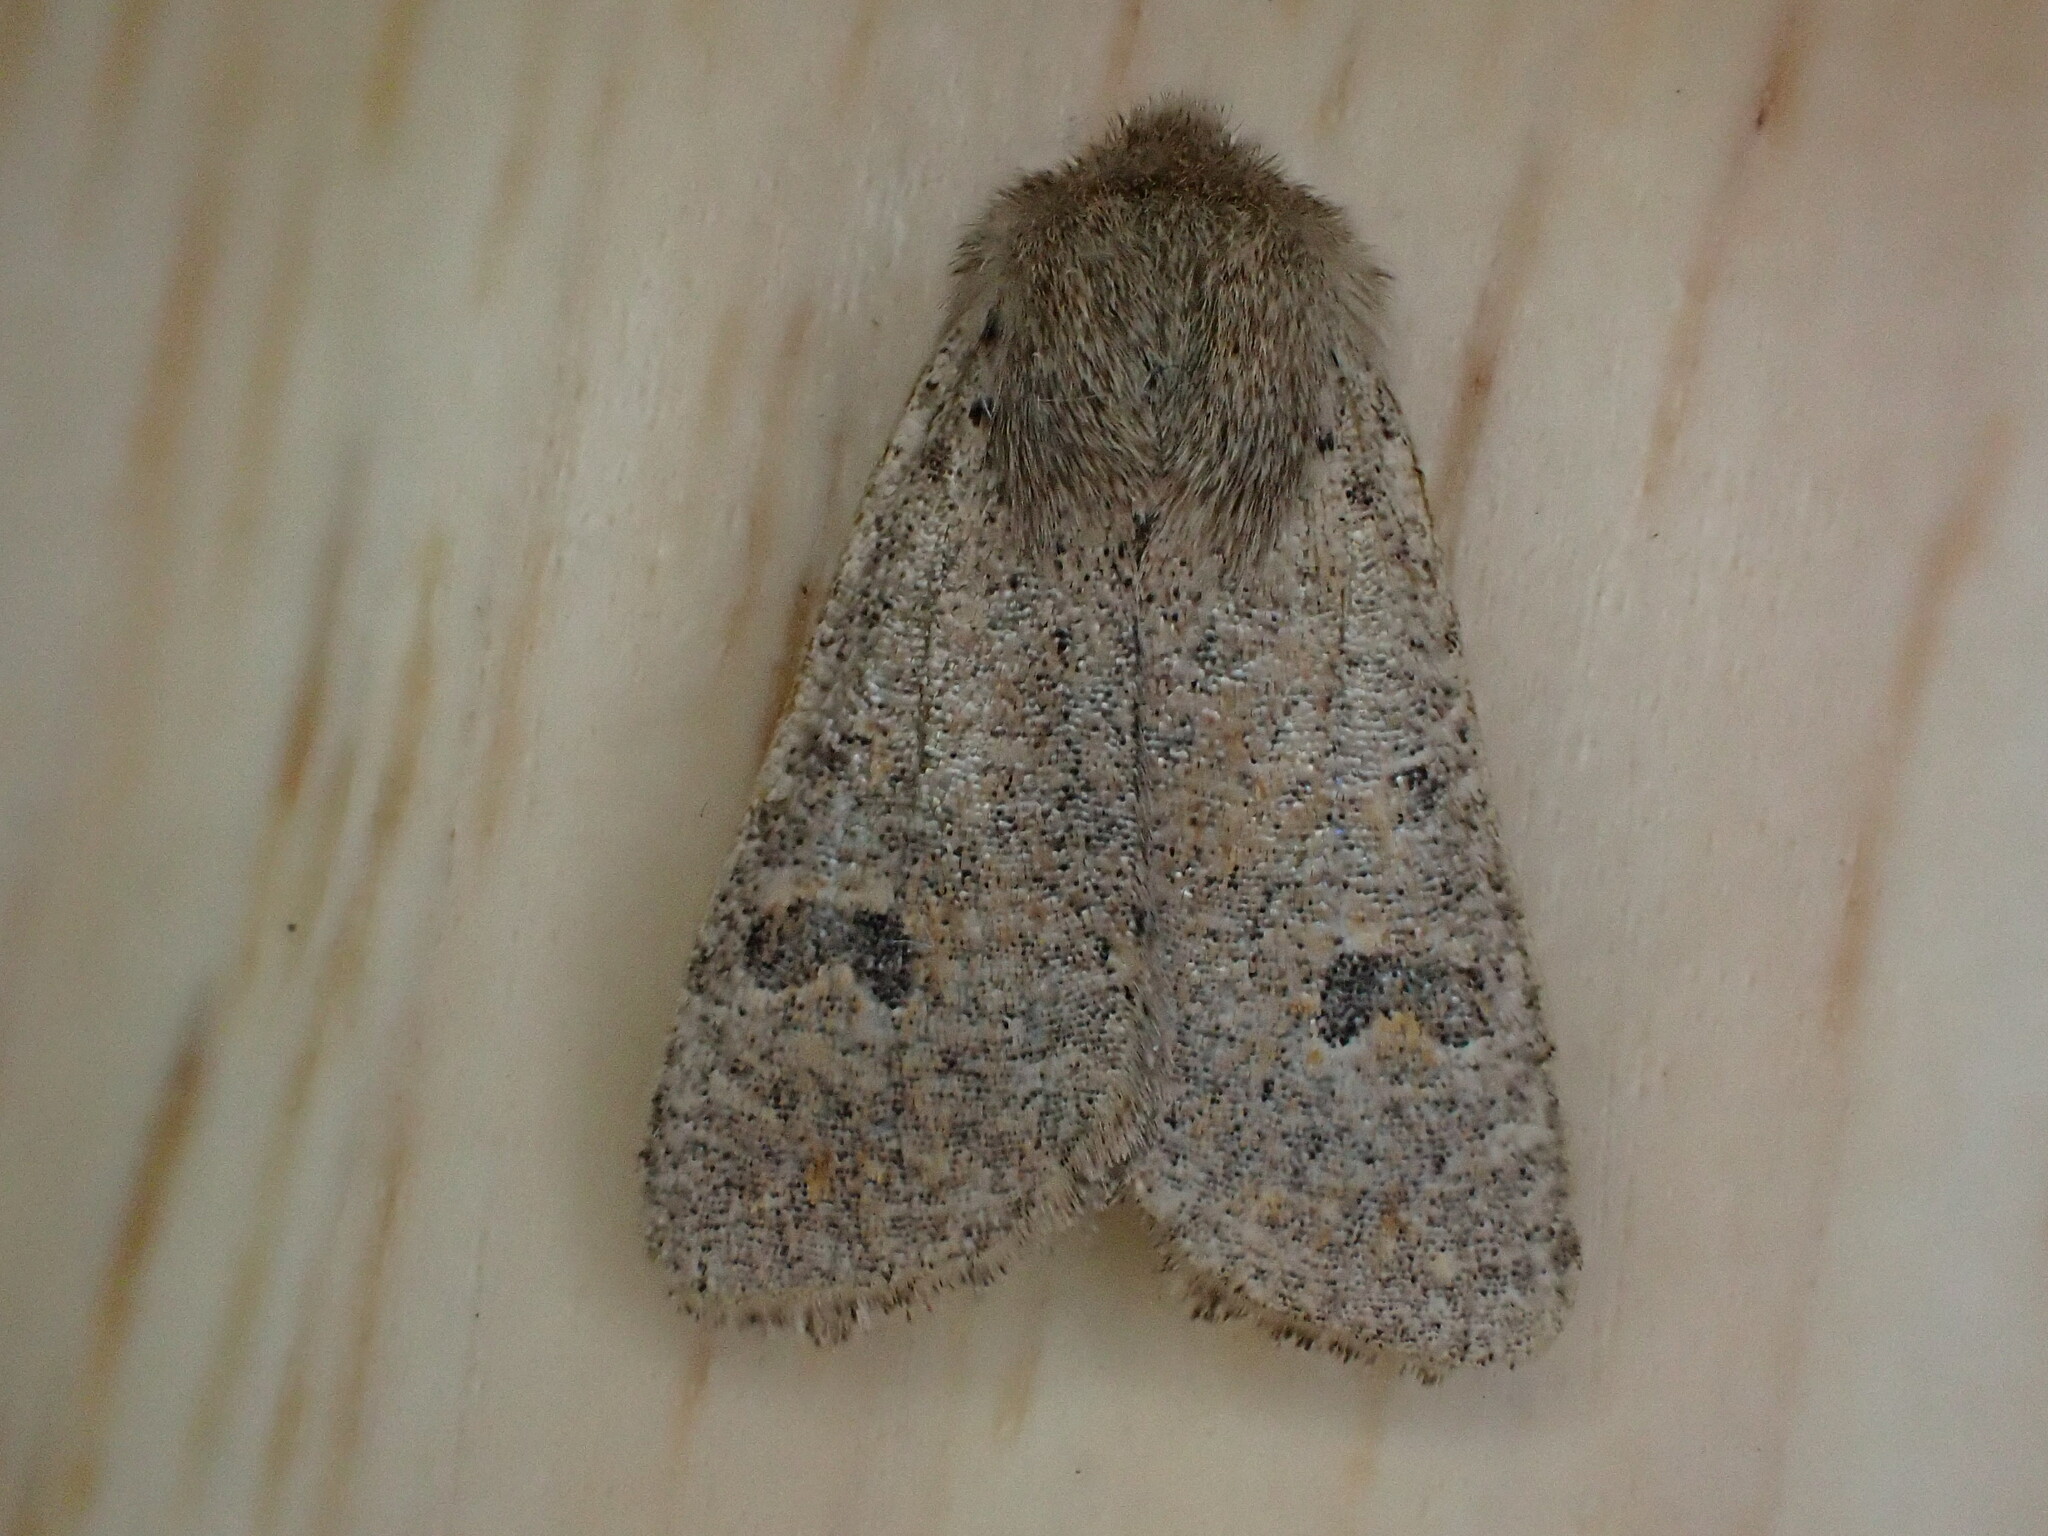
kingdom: Animalia
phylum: Arthropoda
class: Insecta
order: Lepidoptera
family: Noctuidae
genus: Orthosia
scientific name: Orthosia cruda
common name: Small quaker
